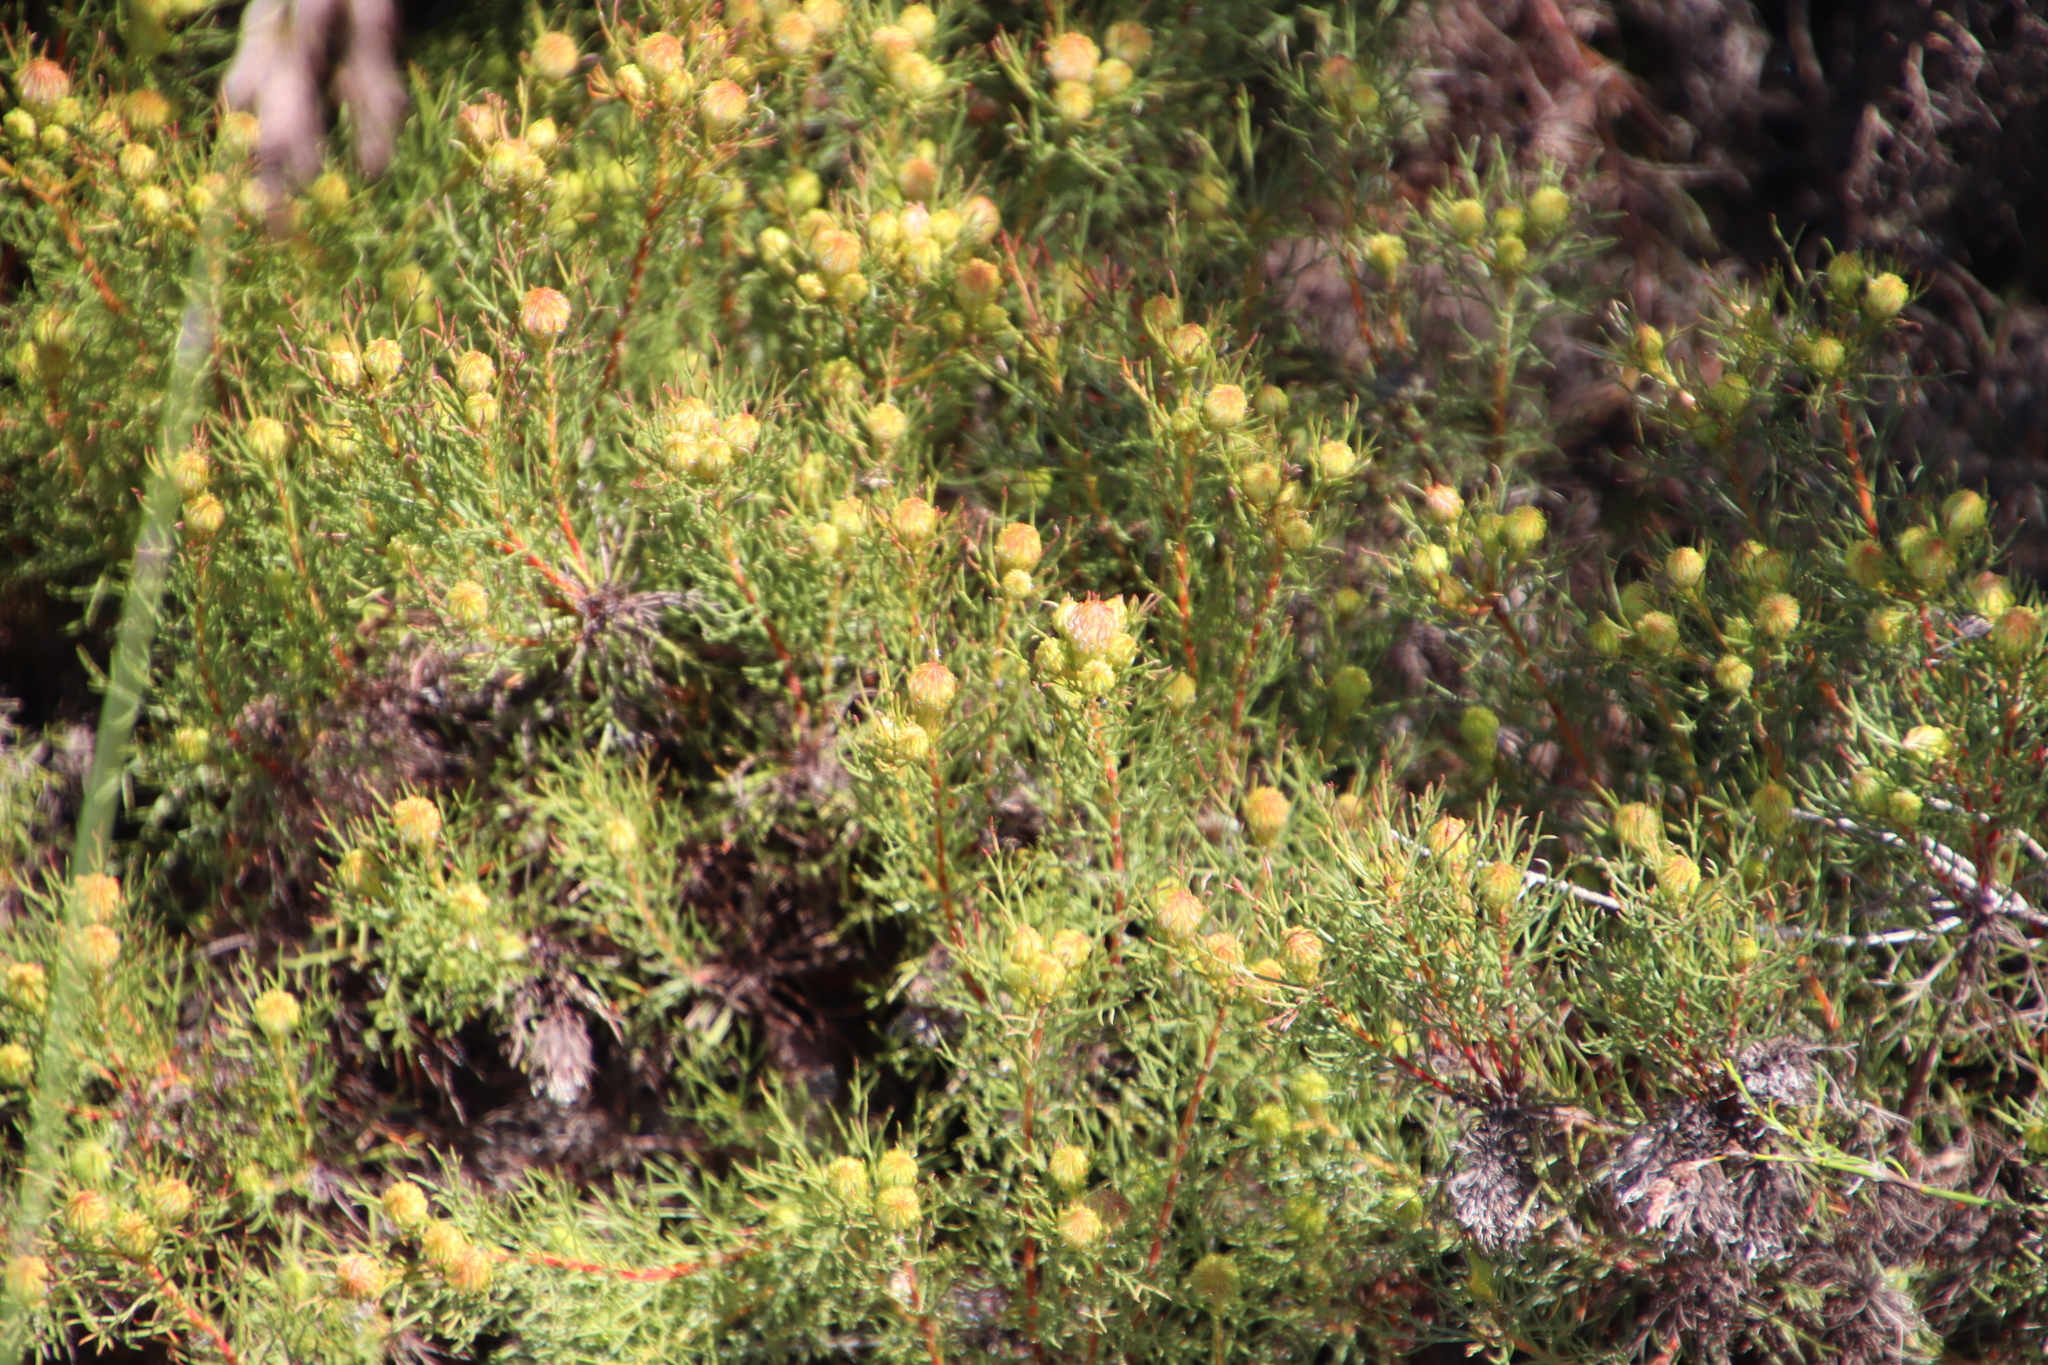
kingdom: Plantae
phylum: Tracheophyta
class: Magnoliopsida
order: Proteales
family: Proteaceae
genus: Serruria
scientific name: Serruria aemula
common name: Strawberry spiderhead
